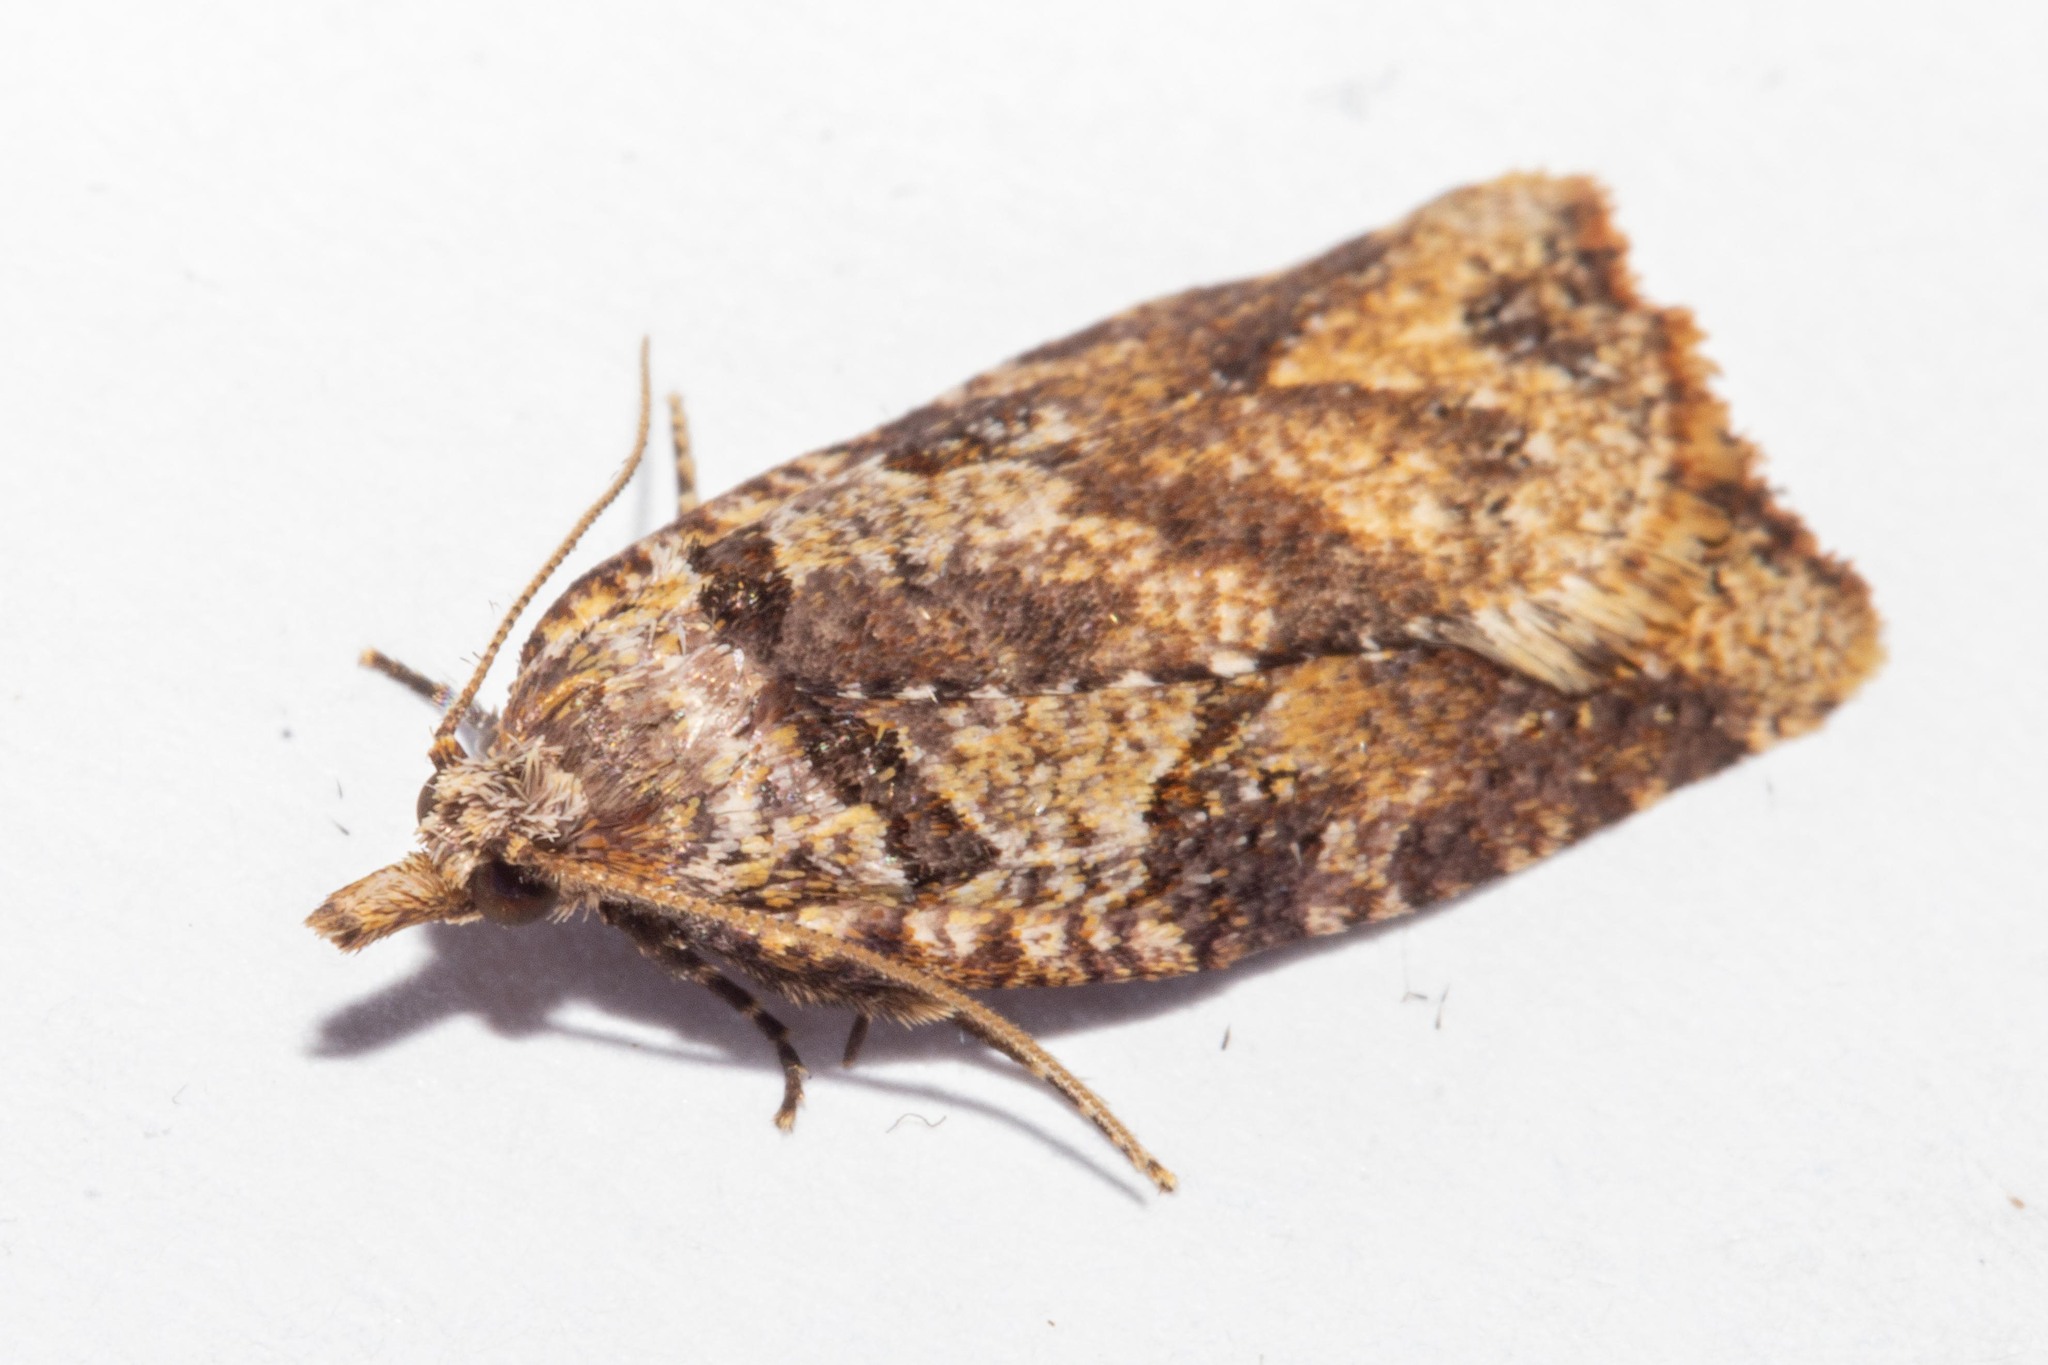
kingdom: Animalia
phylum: Arthropoda
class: Insecta
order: Lepidoptera
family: Tortricidae
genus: Ctenopseustis
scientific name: Ctenopseustis obliquana
